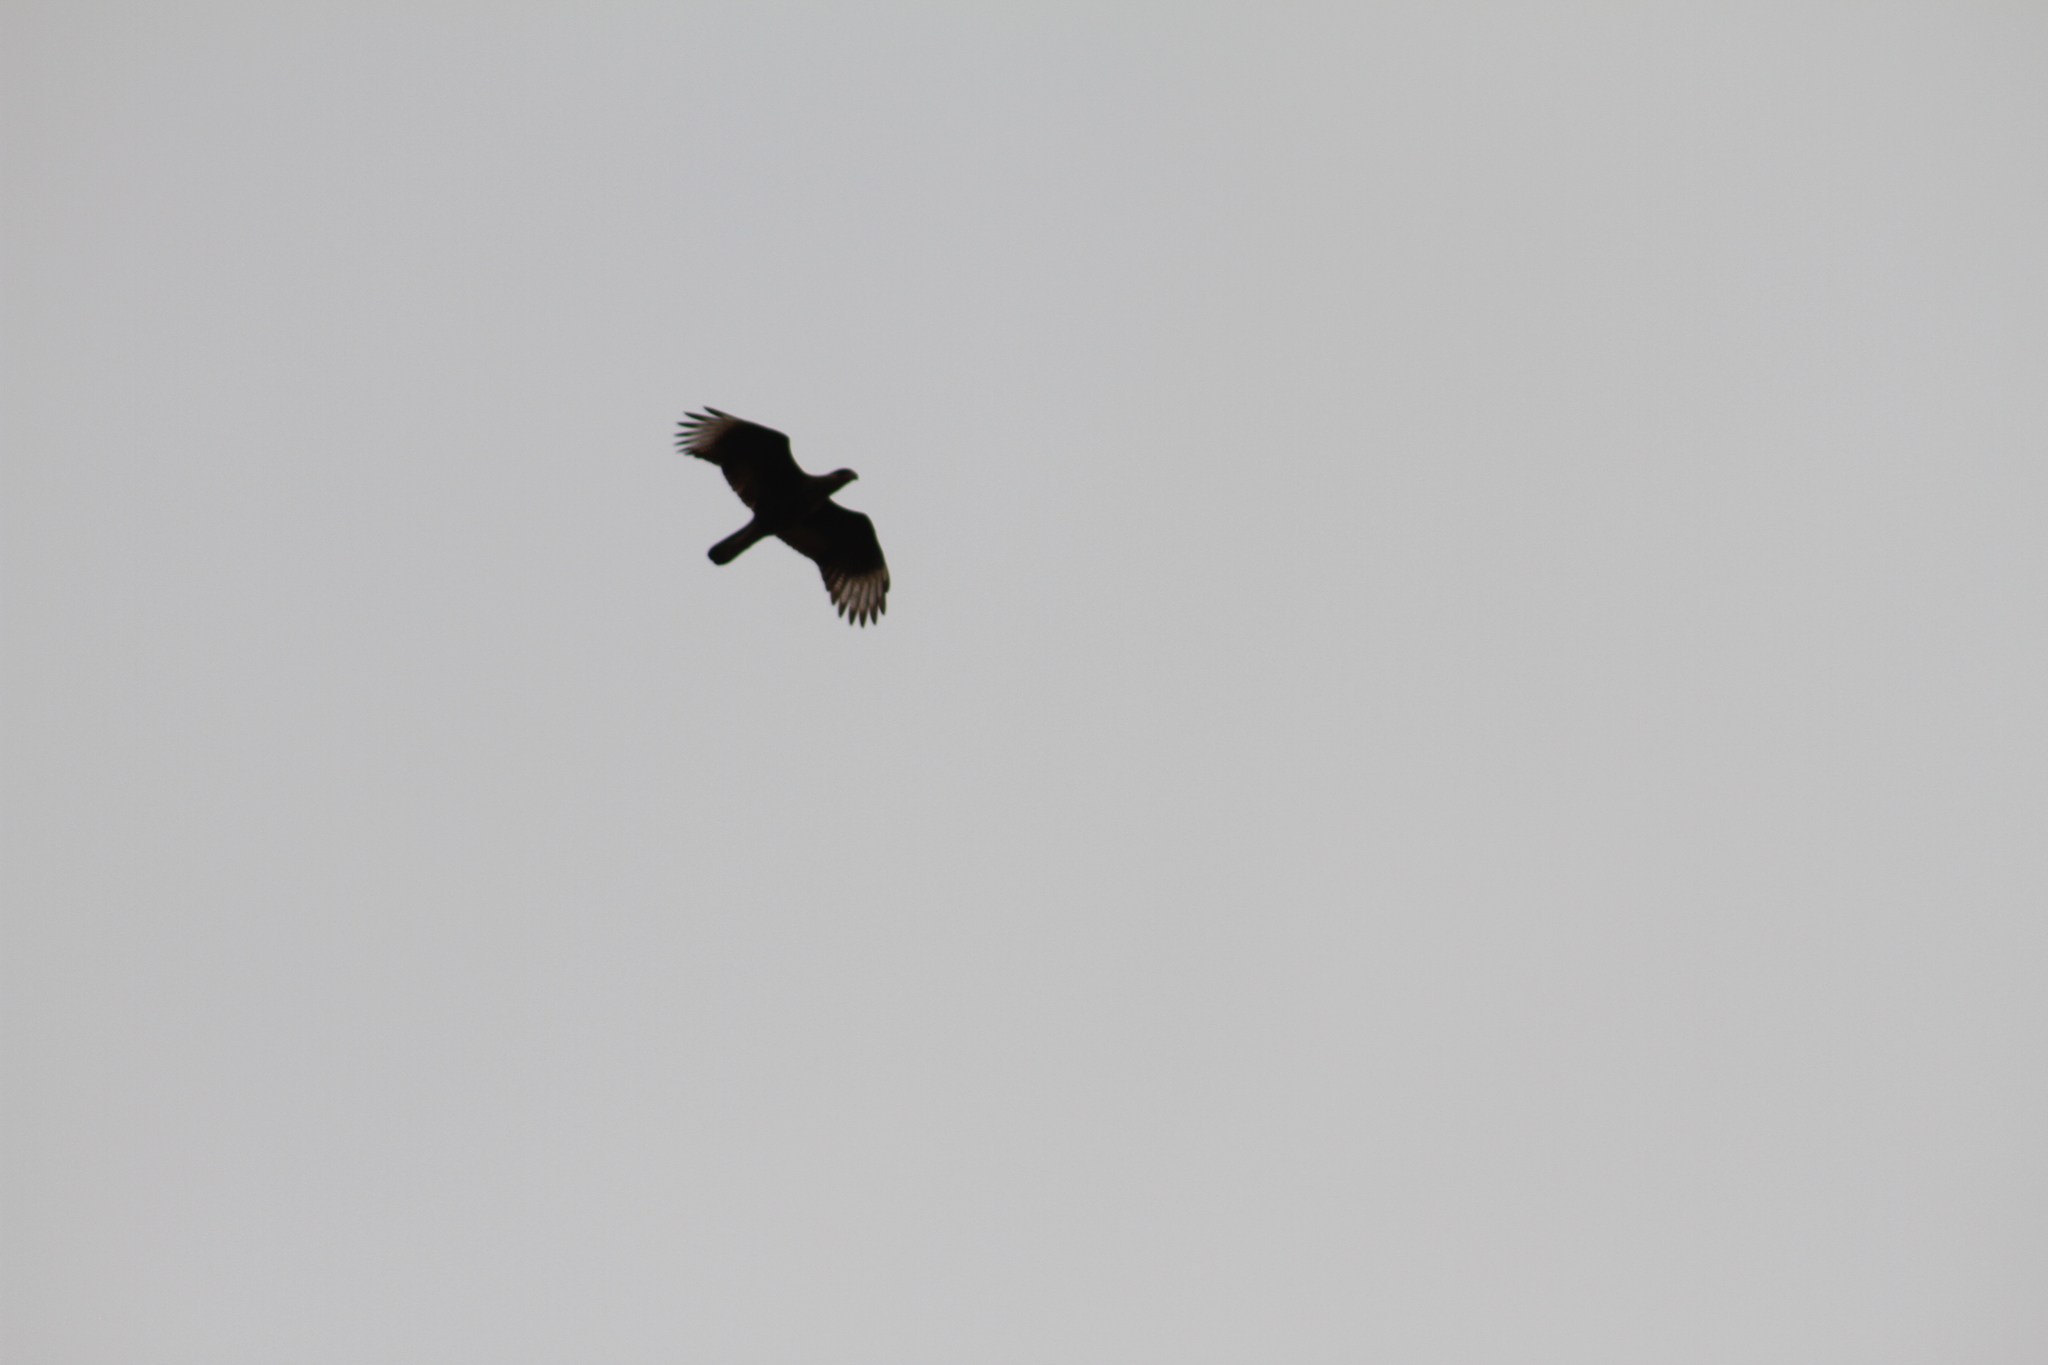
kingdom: Animalia
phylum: Chordata
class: Aves
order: Falconiformes
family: Falconidae
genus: Caracara
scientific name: Caracara plancus
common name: Southern caracara
